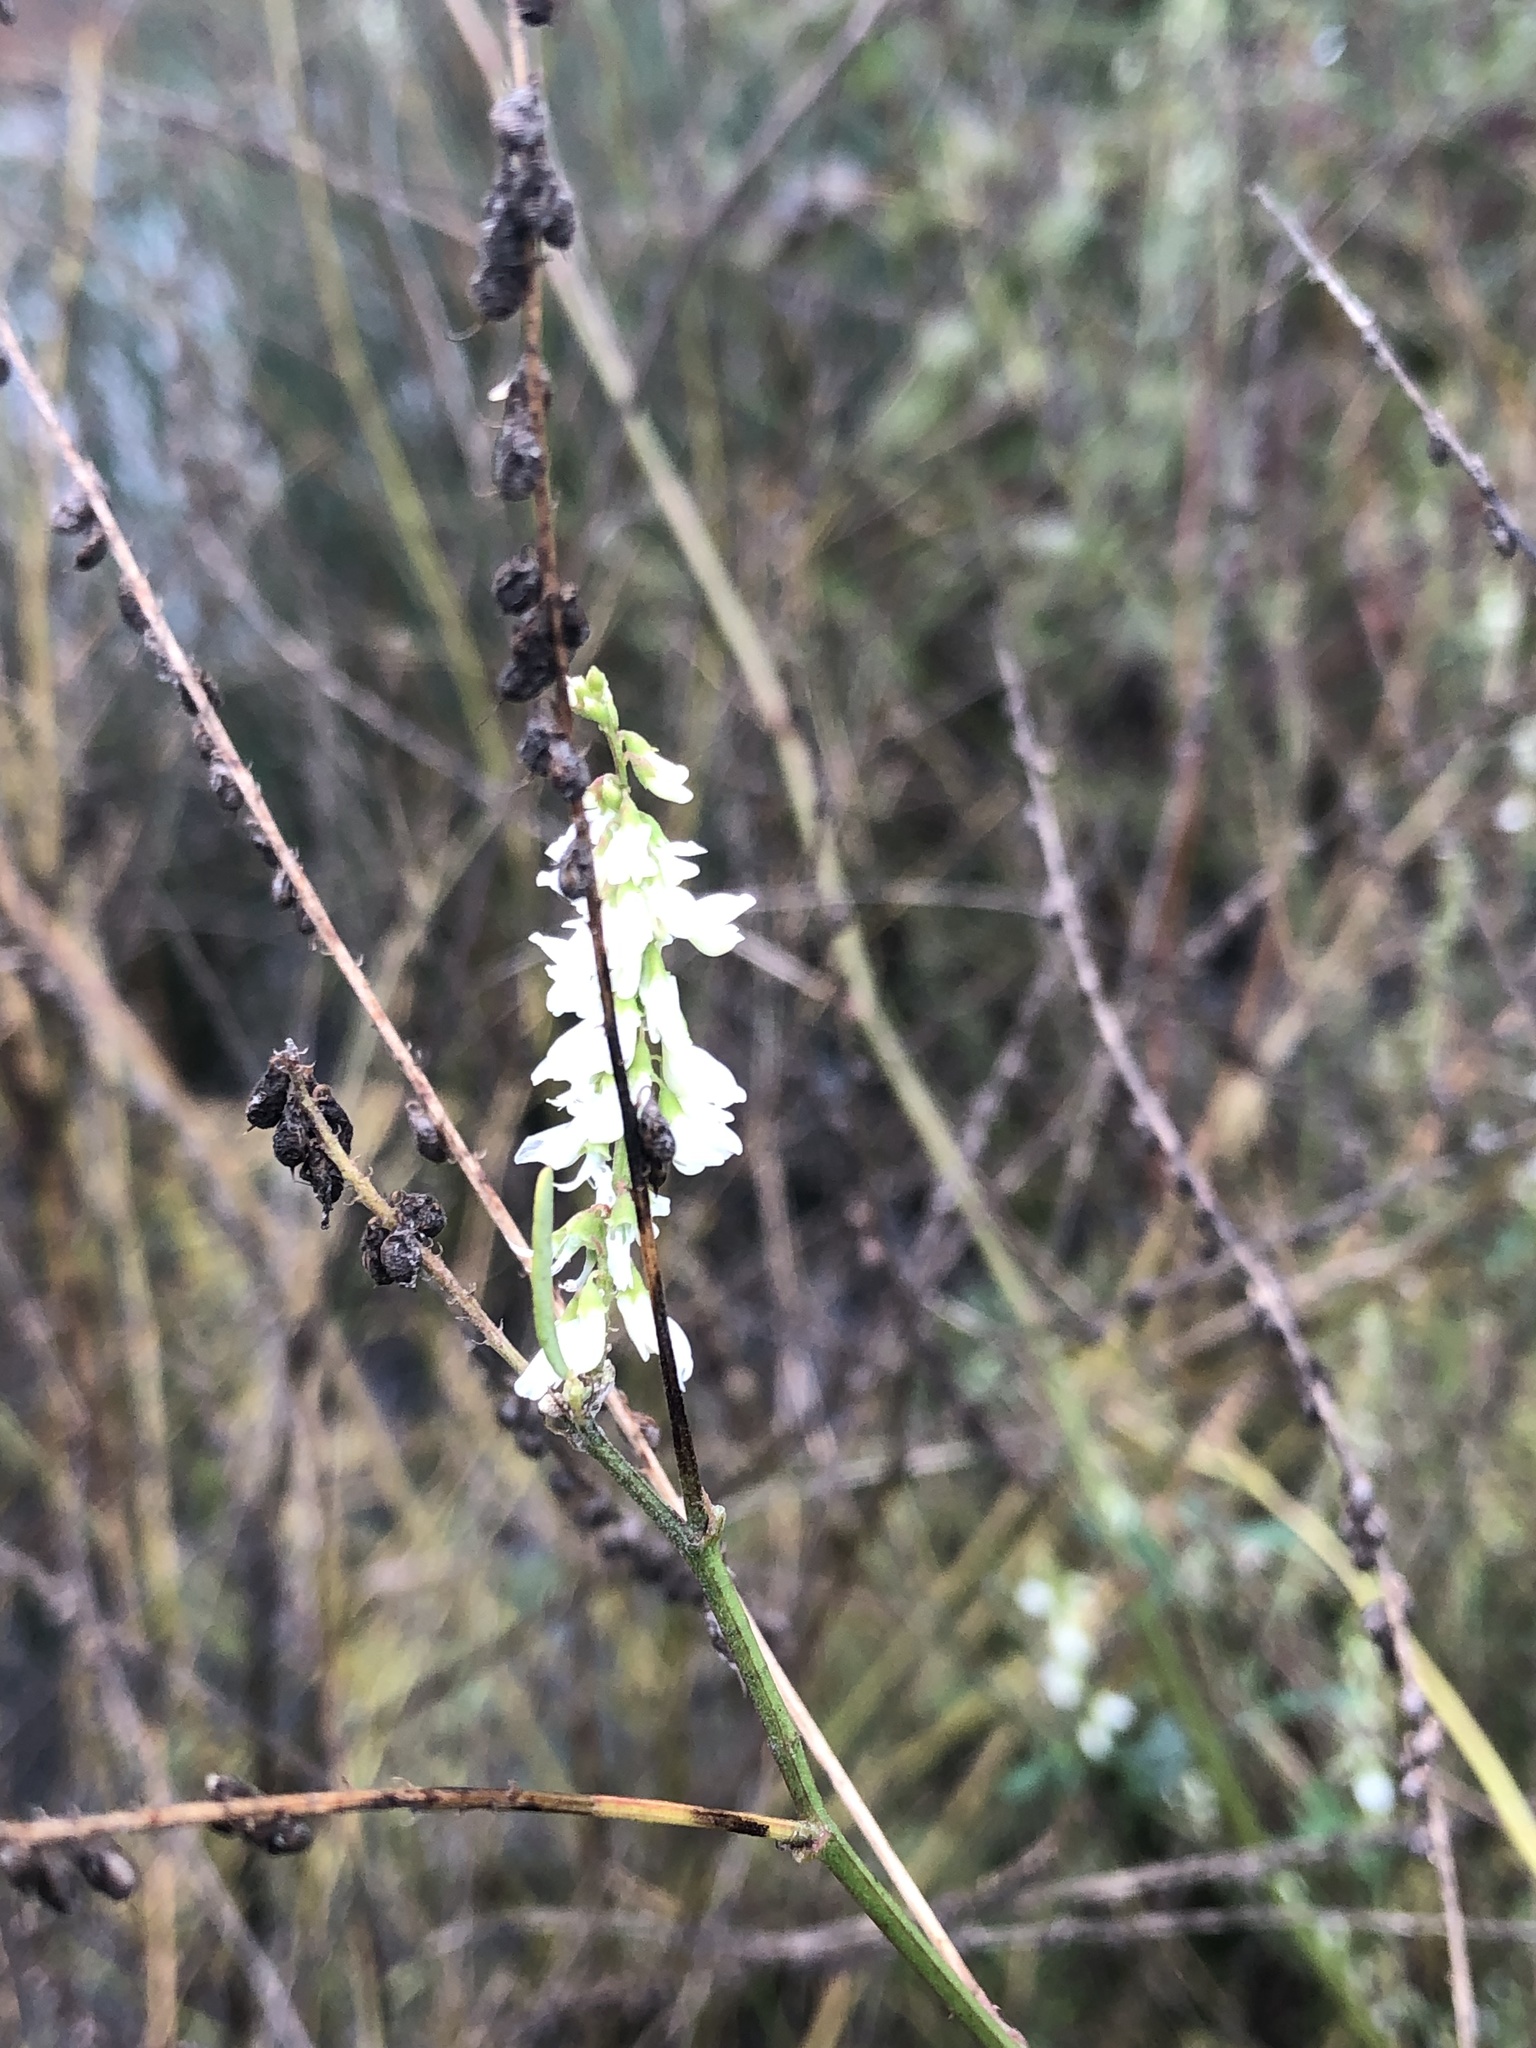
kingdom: Plantae
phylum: Tracheophyta
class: Magnoliopsida
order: Fabales
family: Fabaceae
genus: Melilotus
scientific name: Melilotus albus
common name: White melilot
